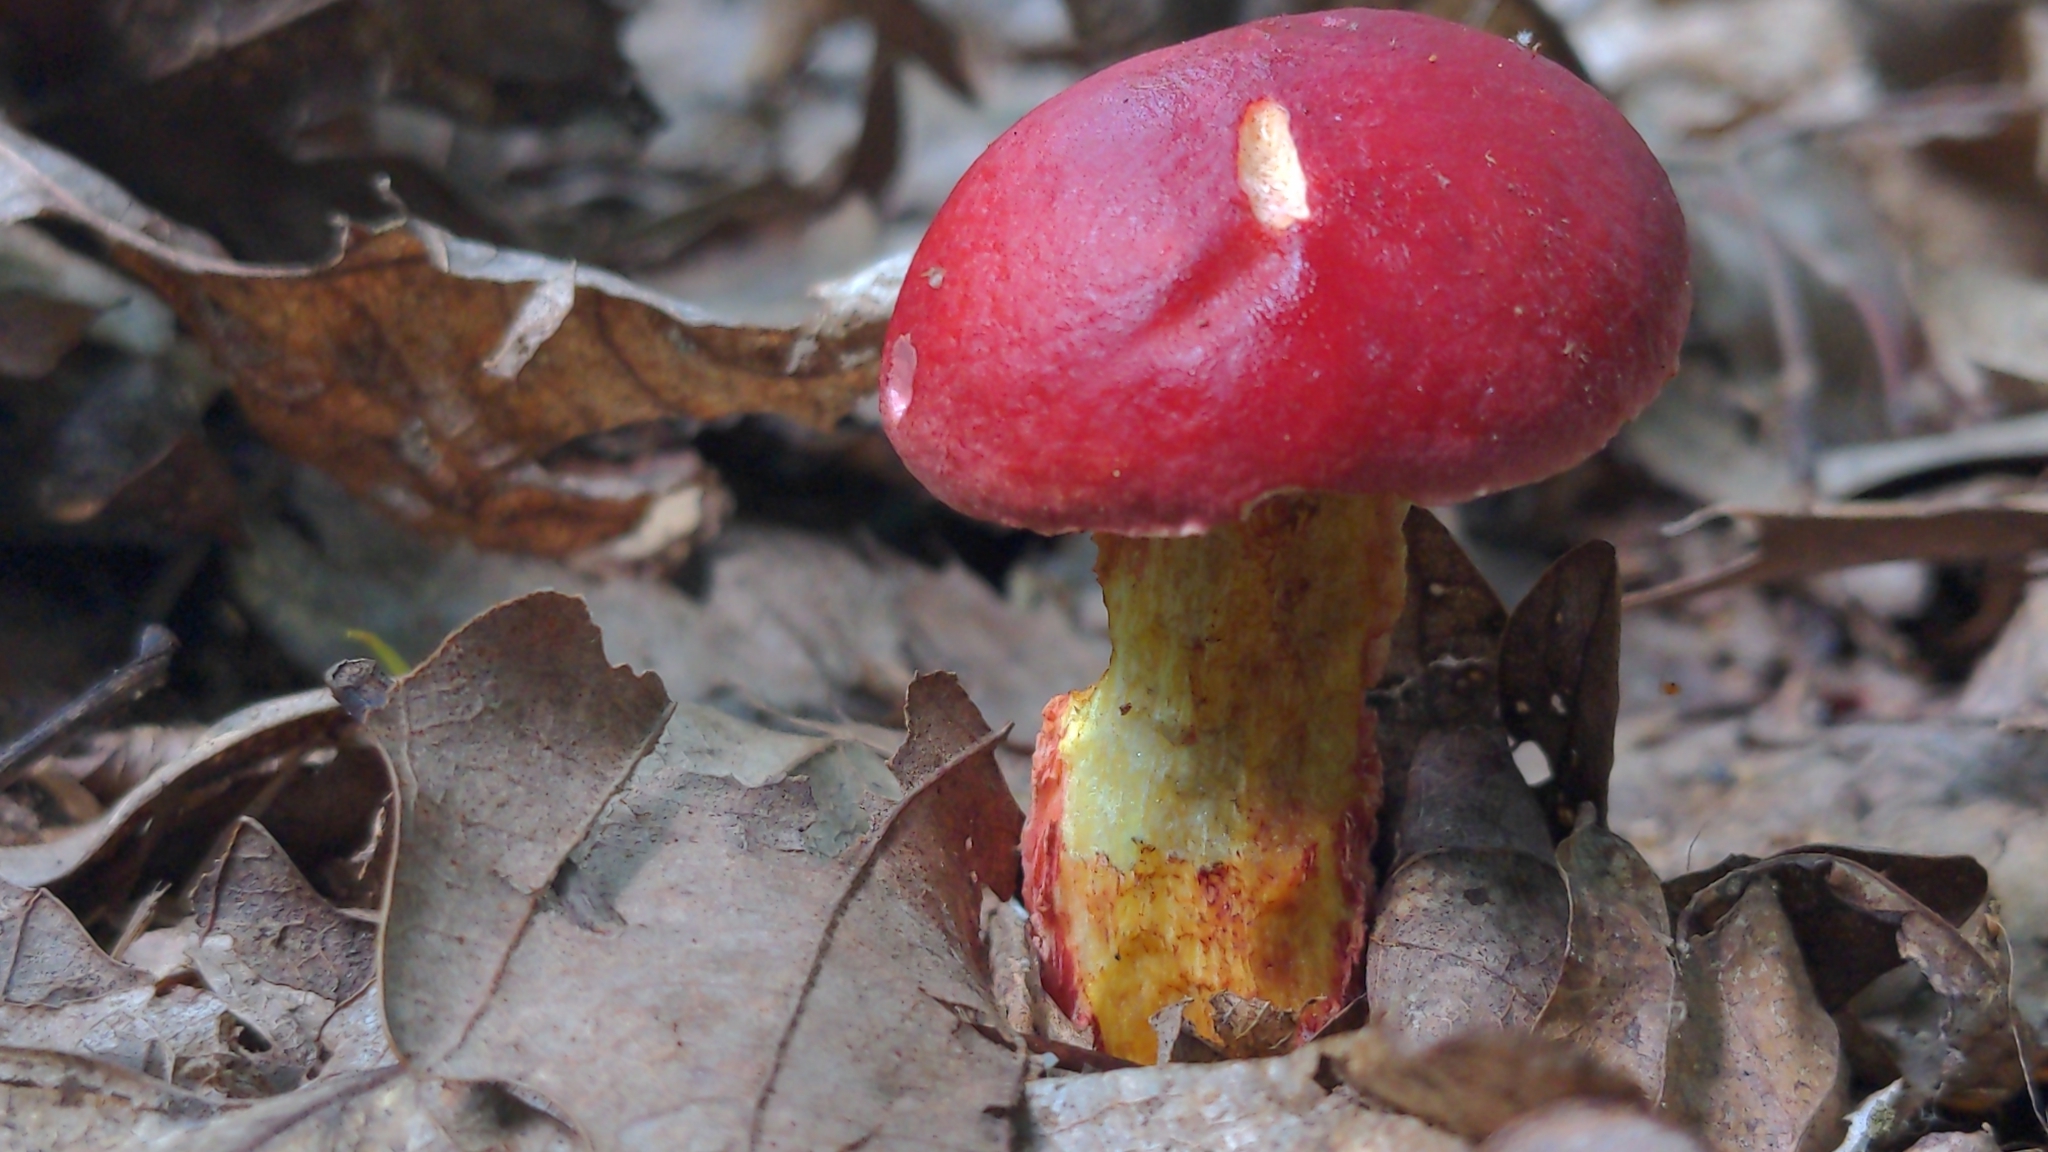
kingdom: Fungi
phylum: Basidiomycota
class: Agaricomycetes
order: Boletales
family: Boletaceae
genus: Butyriboletus
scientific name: Butyriboletus frostii
